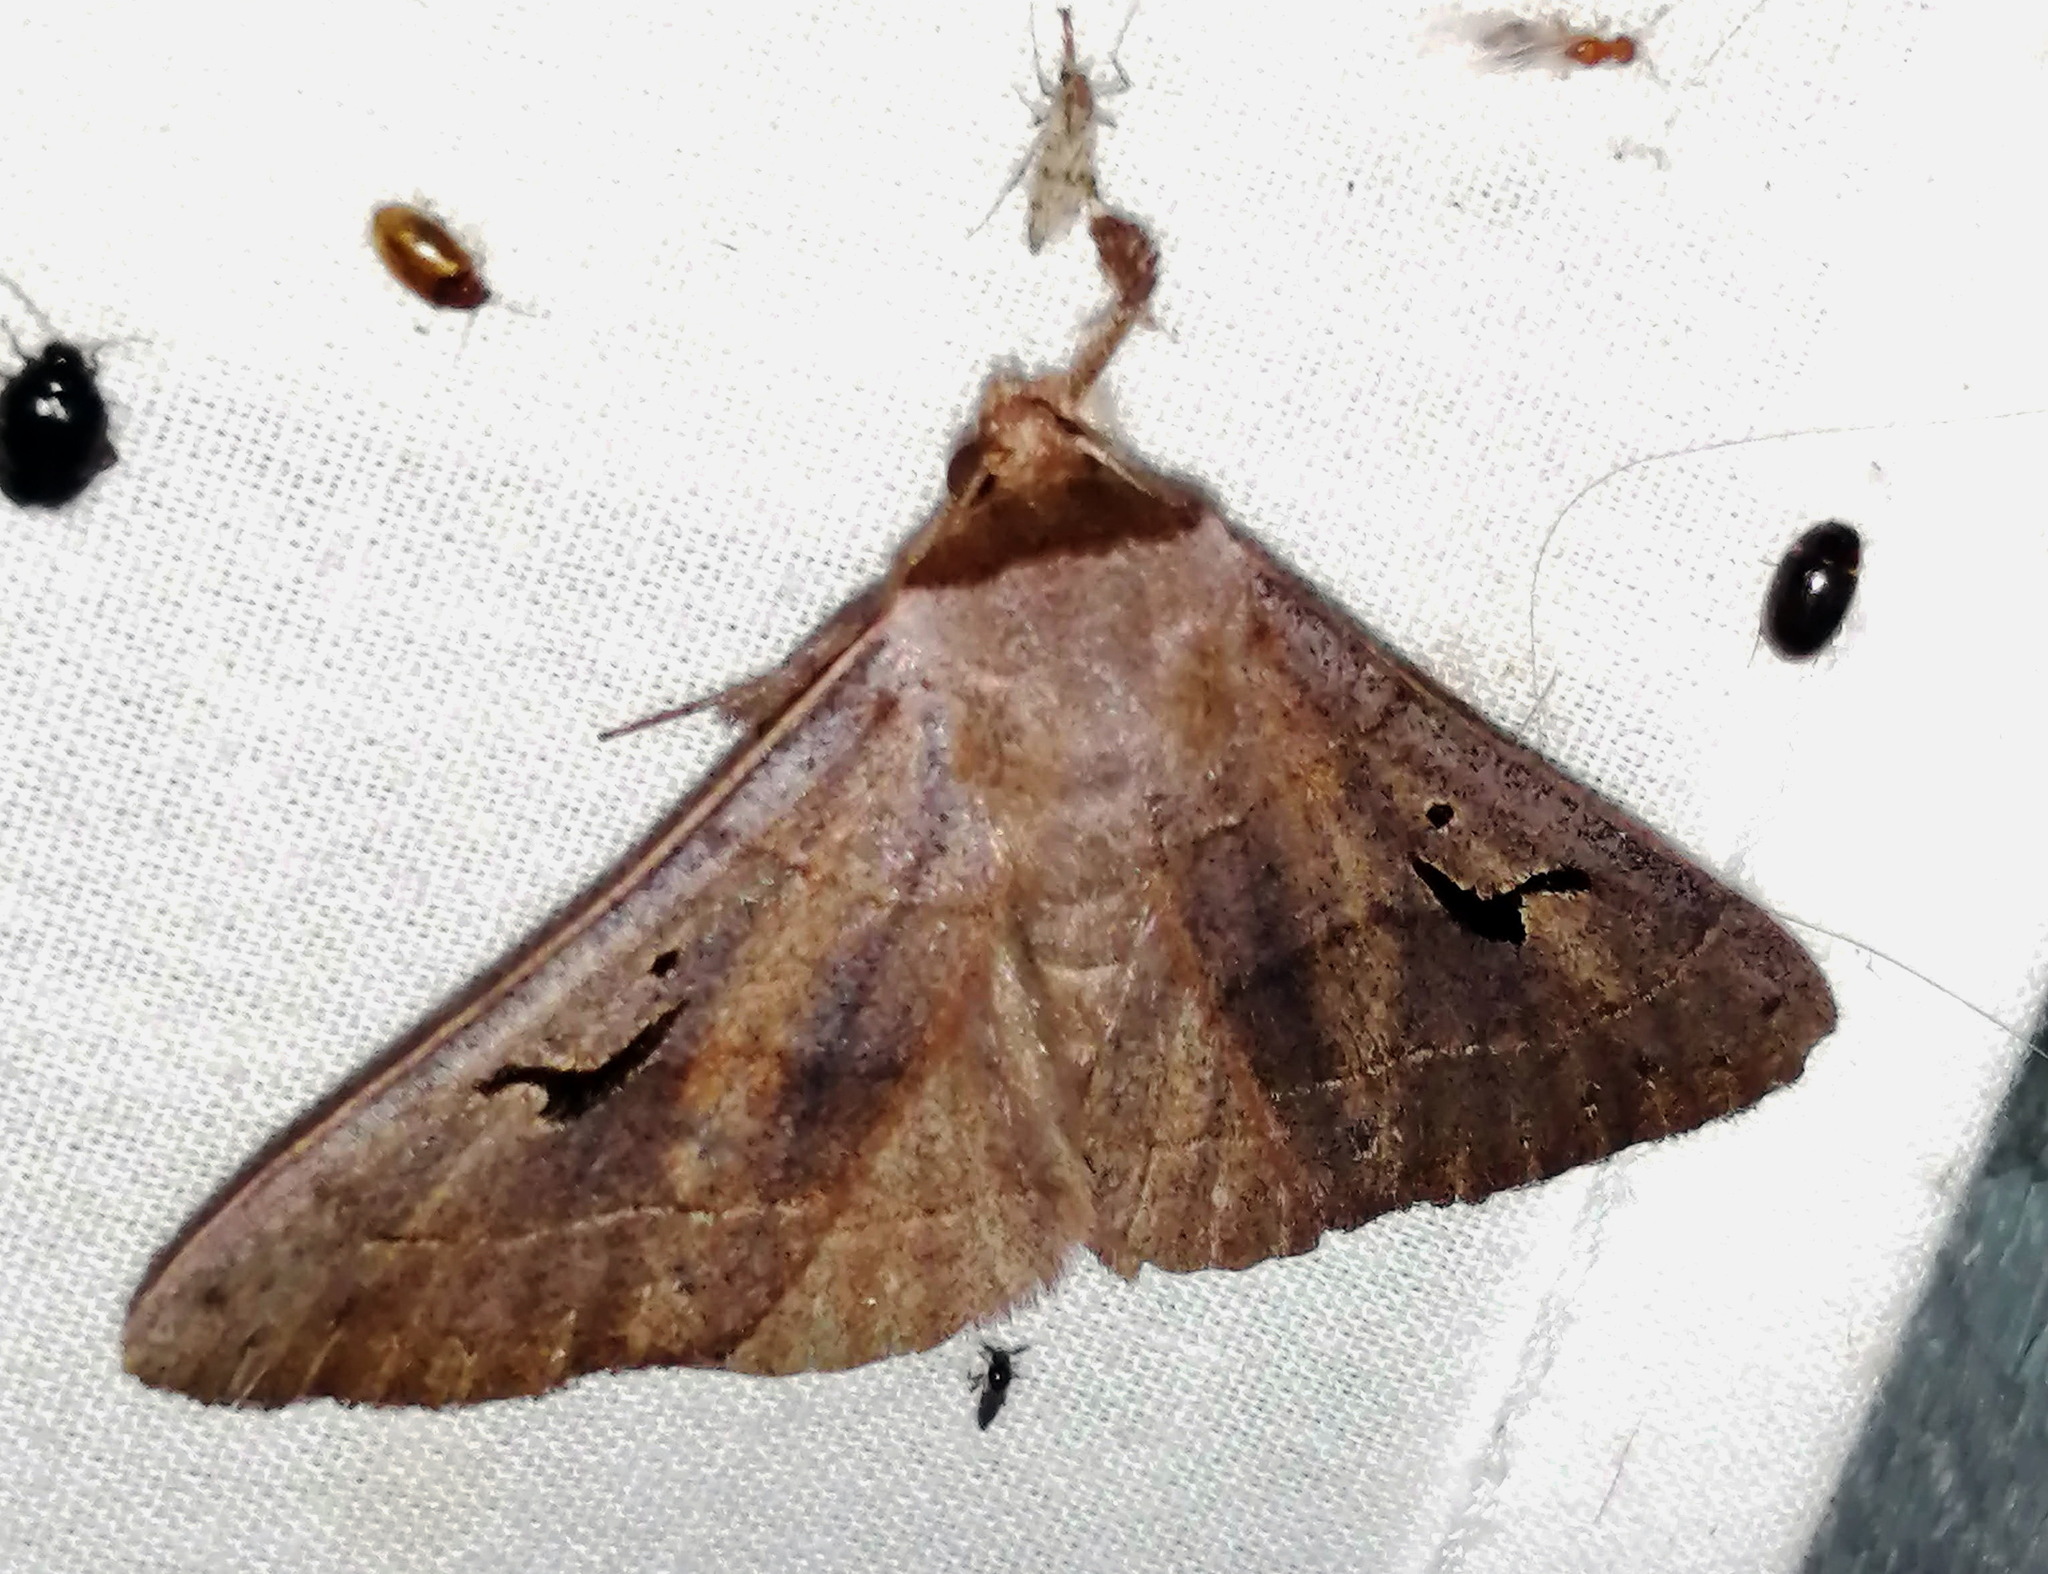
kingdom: Animalia
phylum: Arthropoda
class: Insecta
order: Lepidoptera
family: Erebidae
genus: Panopoda
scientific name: Panopoda carneicosta
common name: Brown panopoda moth
